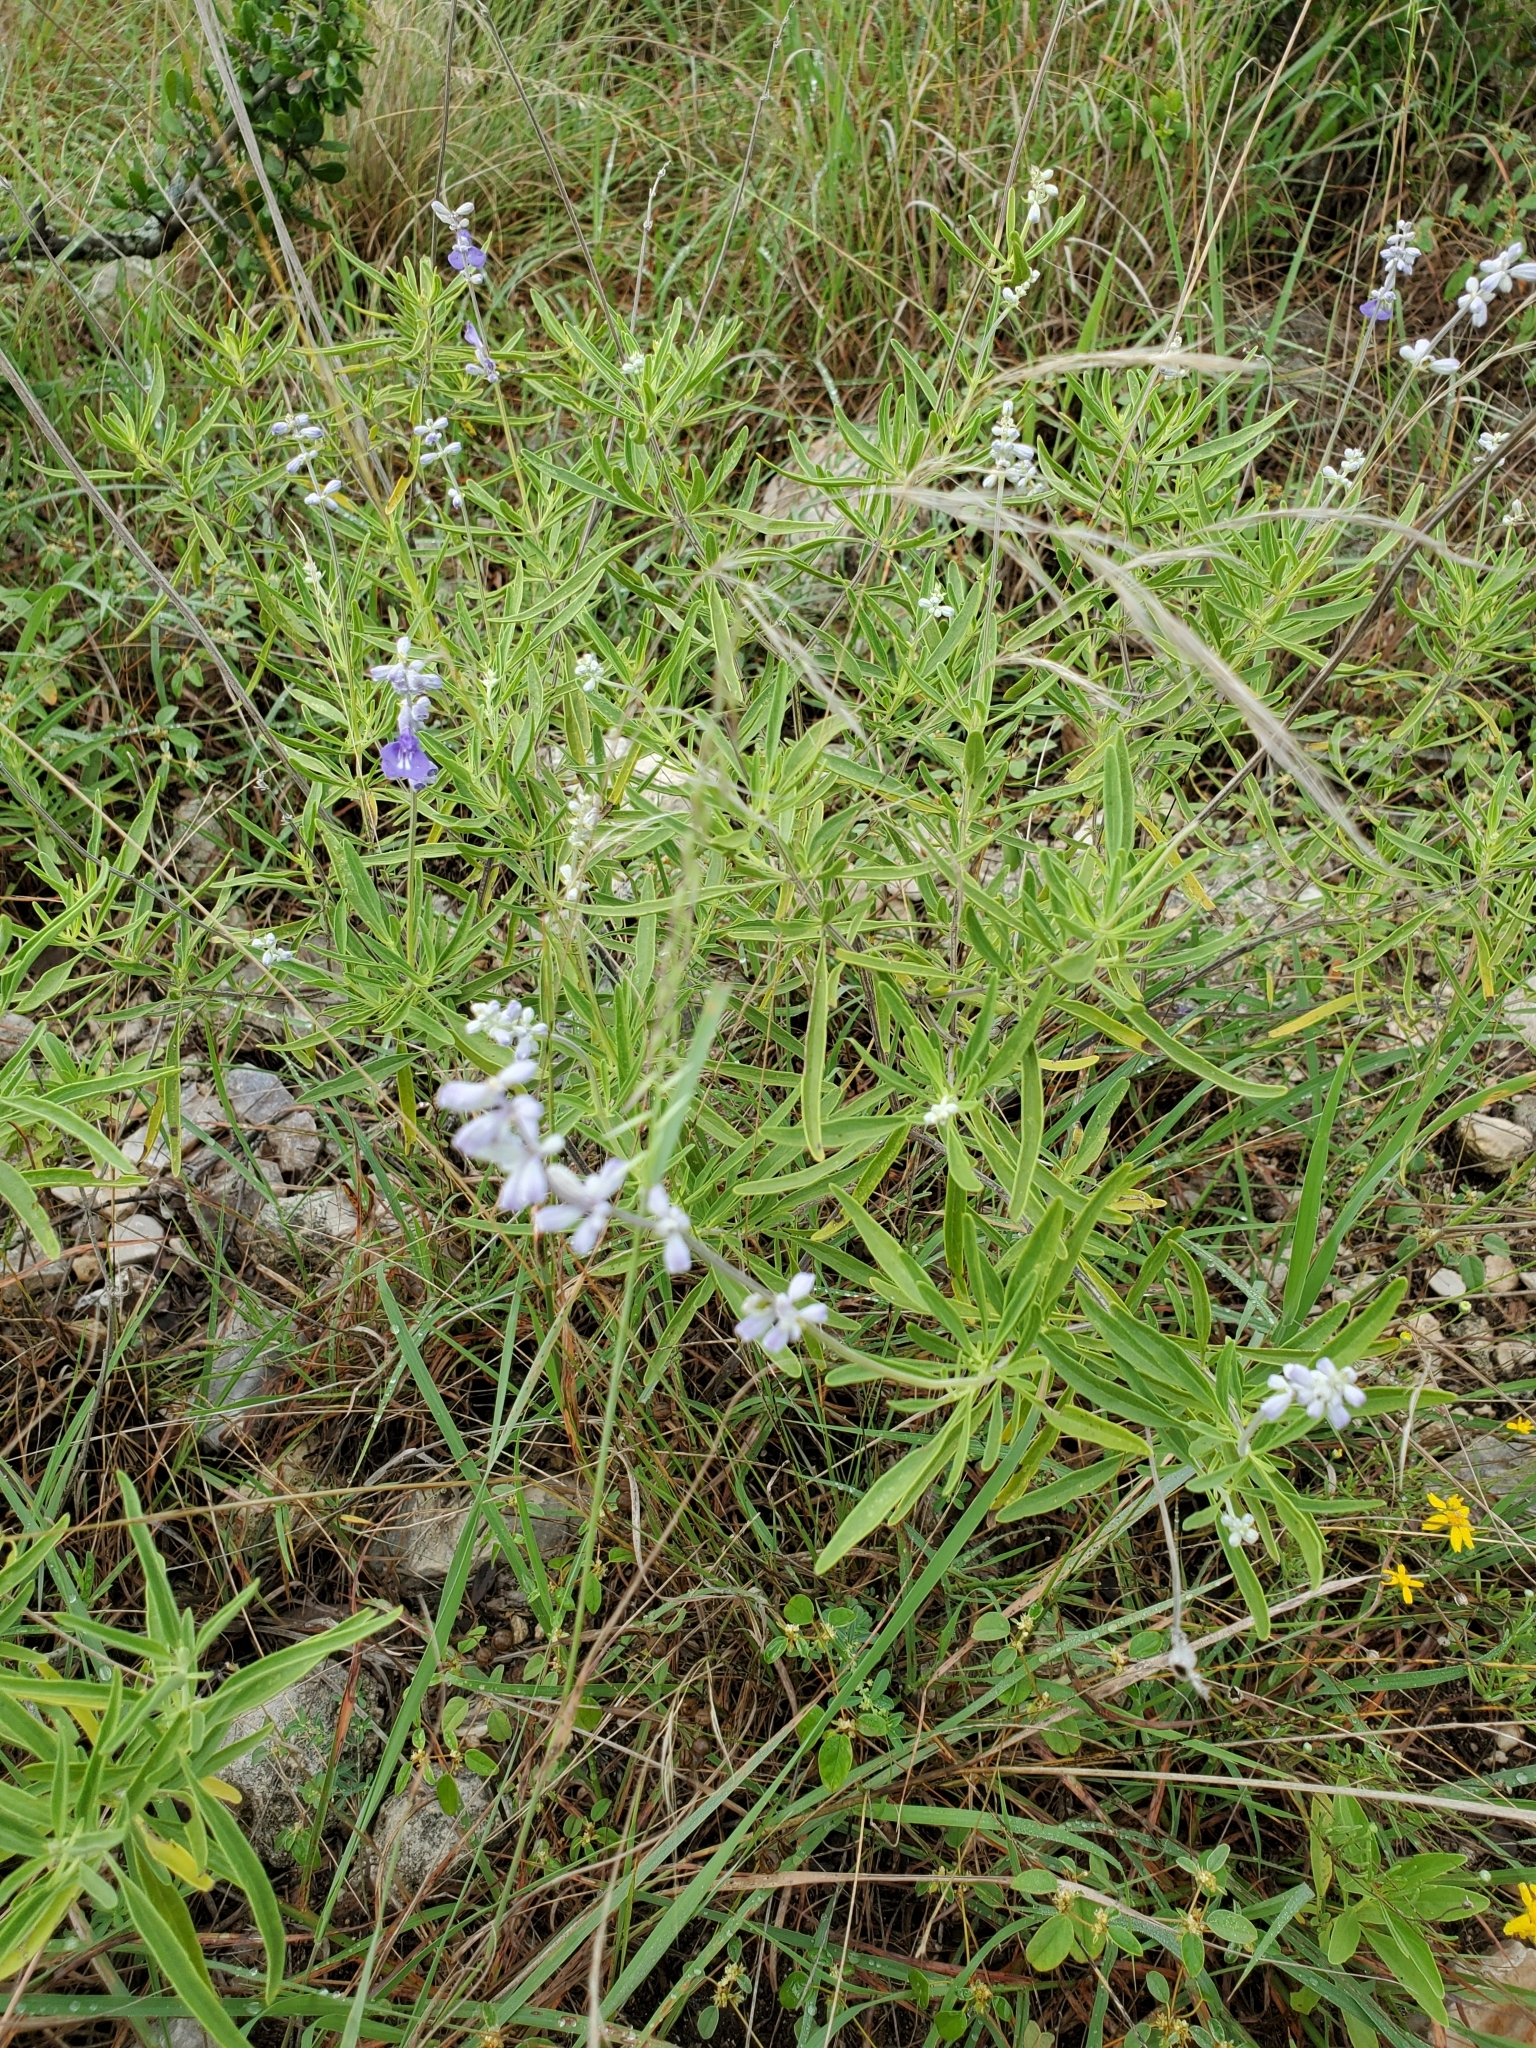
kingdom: Plantae
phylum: Tracheophyta
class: Magnoliopsida
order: Lamiales
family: Lamiaceae
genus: Salvia
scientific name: Salvia farinacea
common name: Mealy sage
